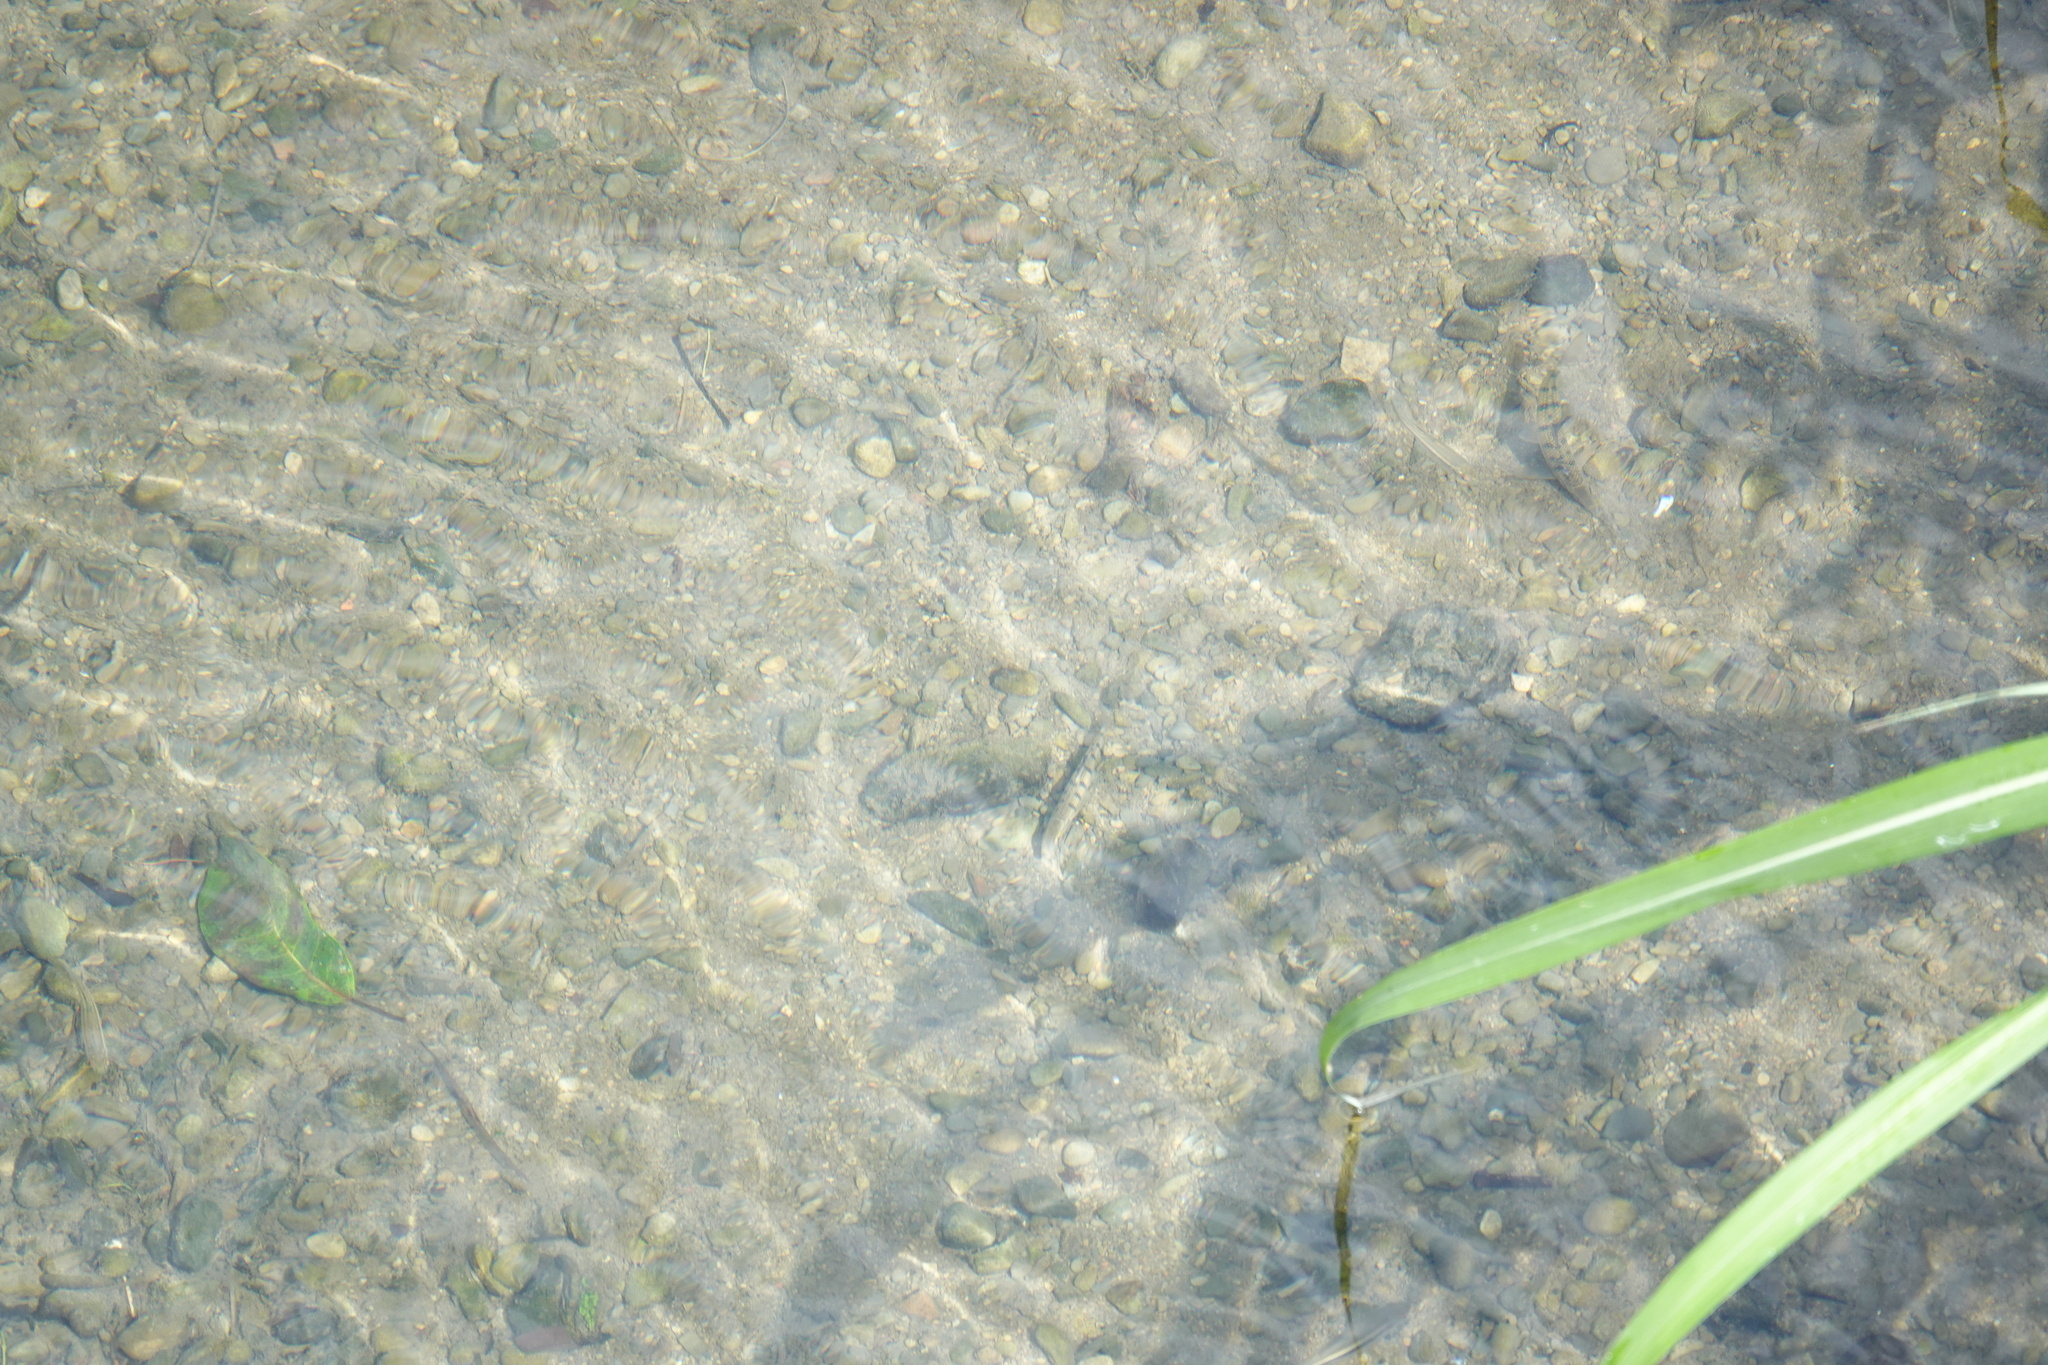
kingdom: Animalia
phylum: Chordata
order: Cypriniformes
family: Cyprinidae
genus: Acrossocheilus
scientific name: Acrossocheilus paradoxus
